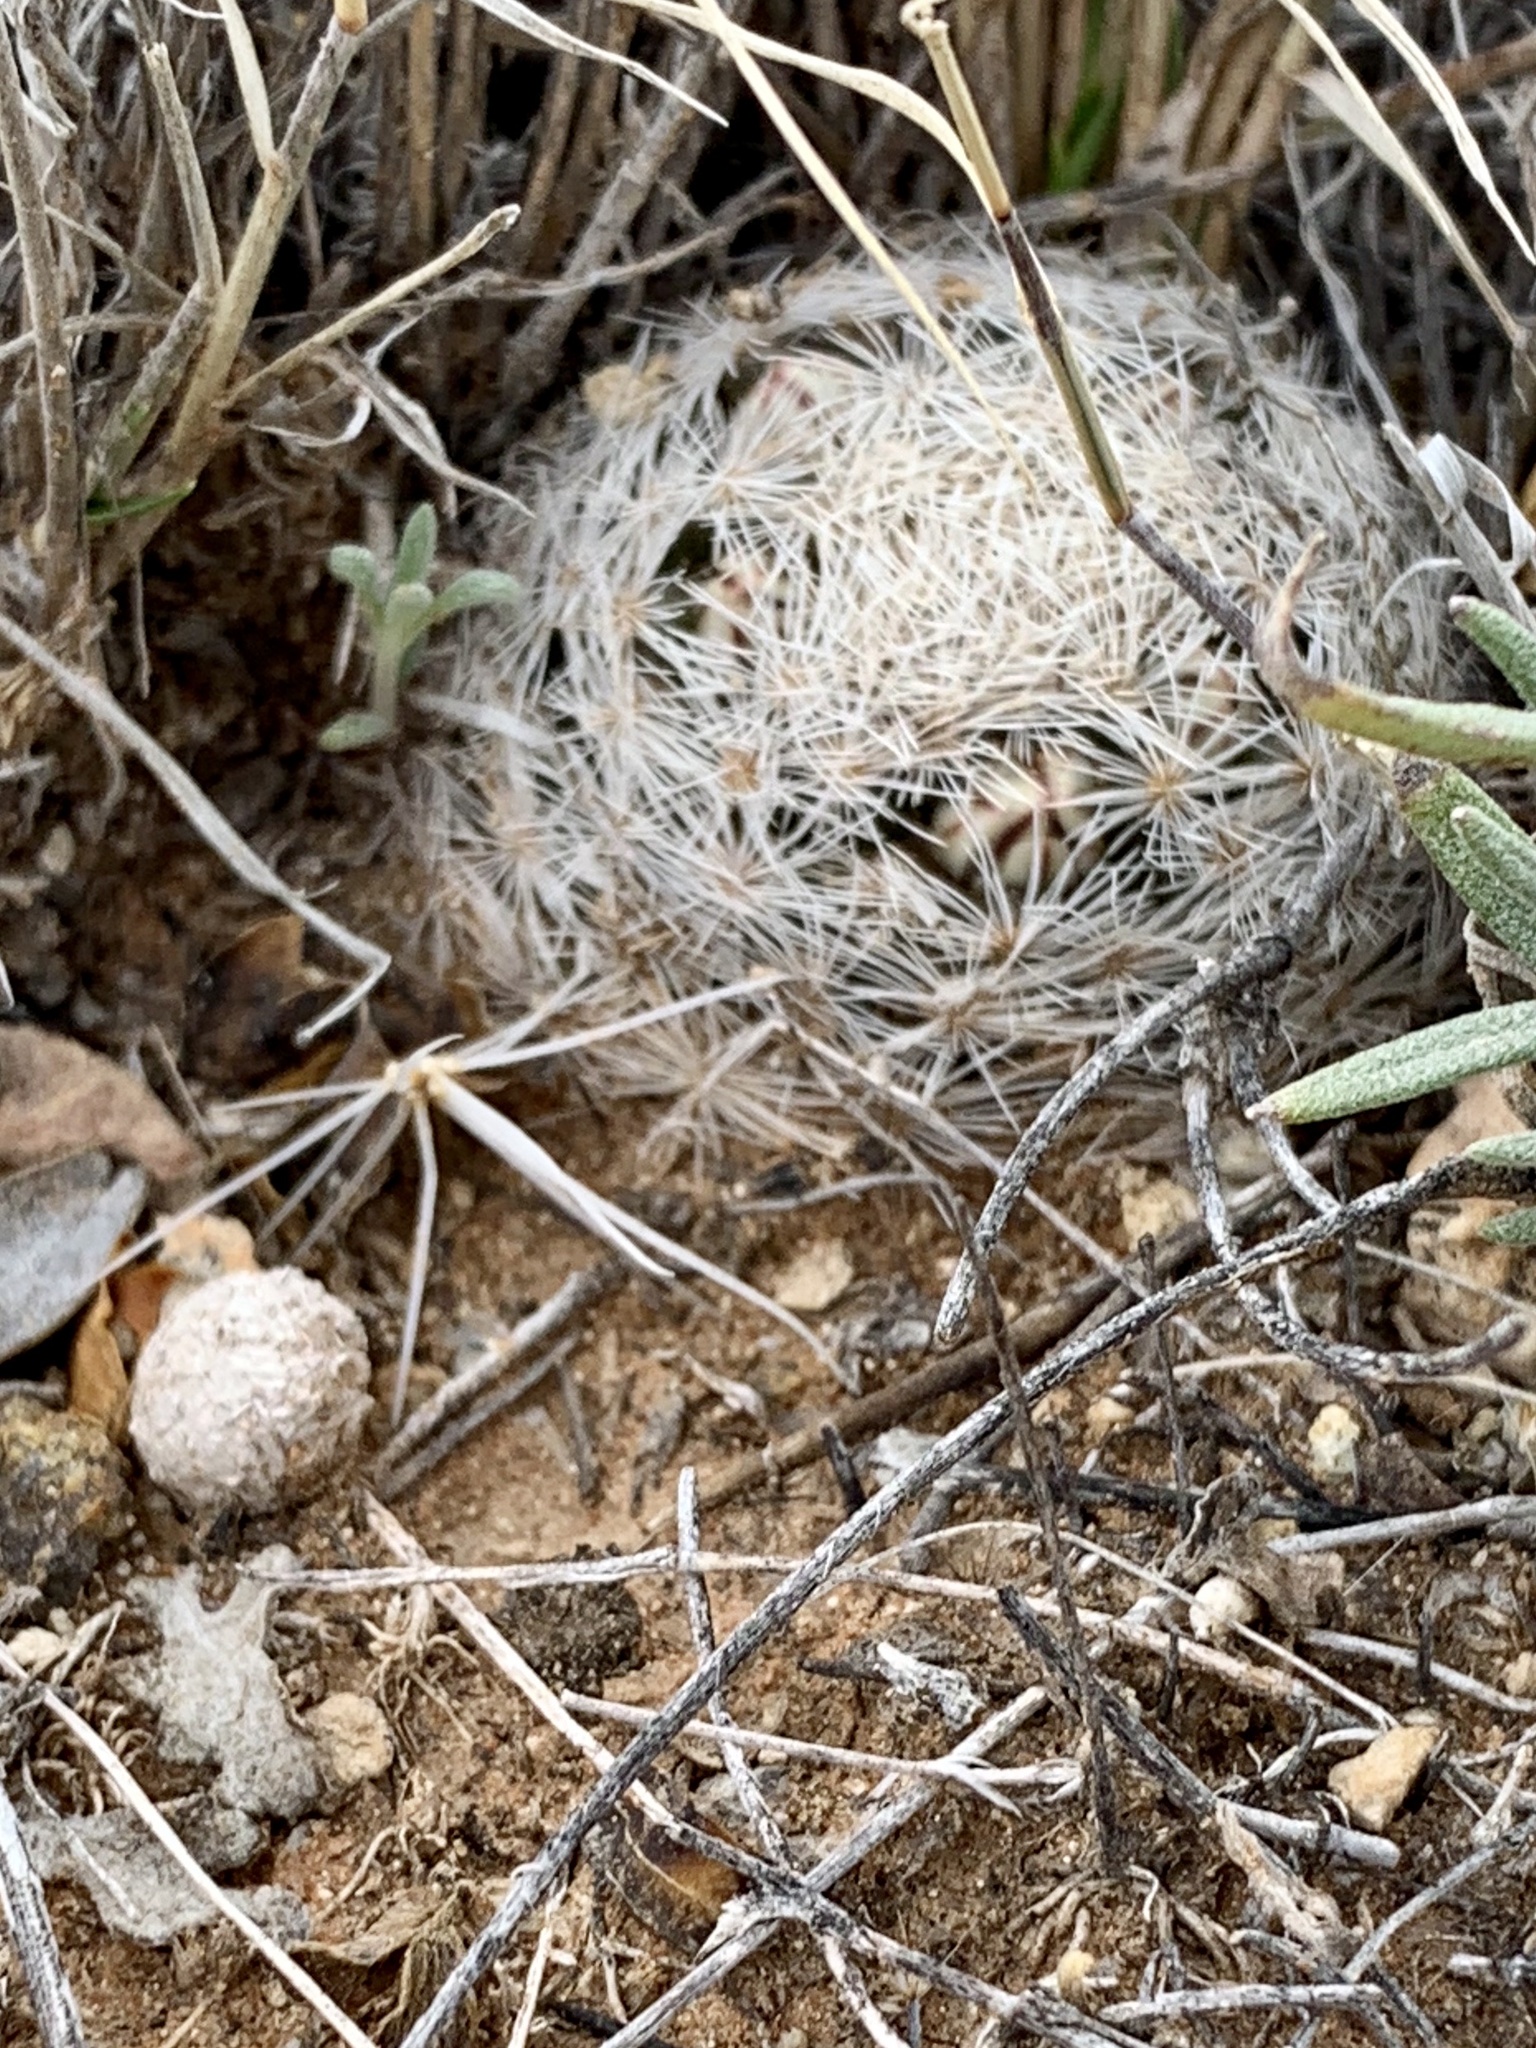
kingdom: Plantae
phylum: Tracheophyta
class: Magnoliopsida
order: Caryophyllales
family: Cactaceae
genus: Mammillaria
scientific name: Mammillaria lasiacantha
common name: Lace-spine nipple cactus
